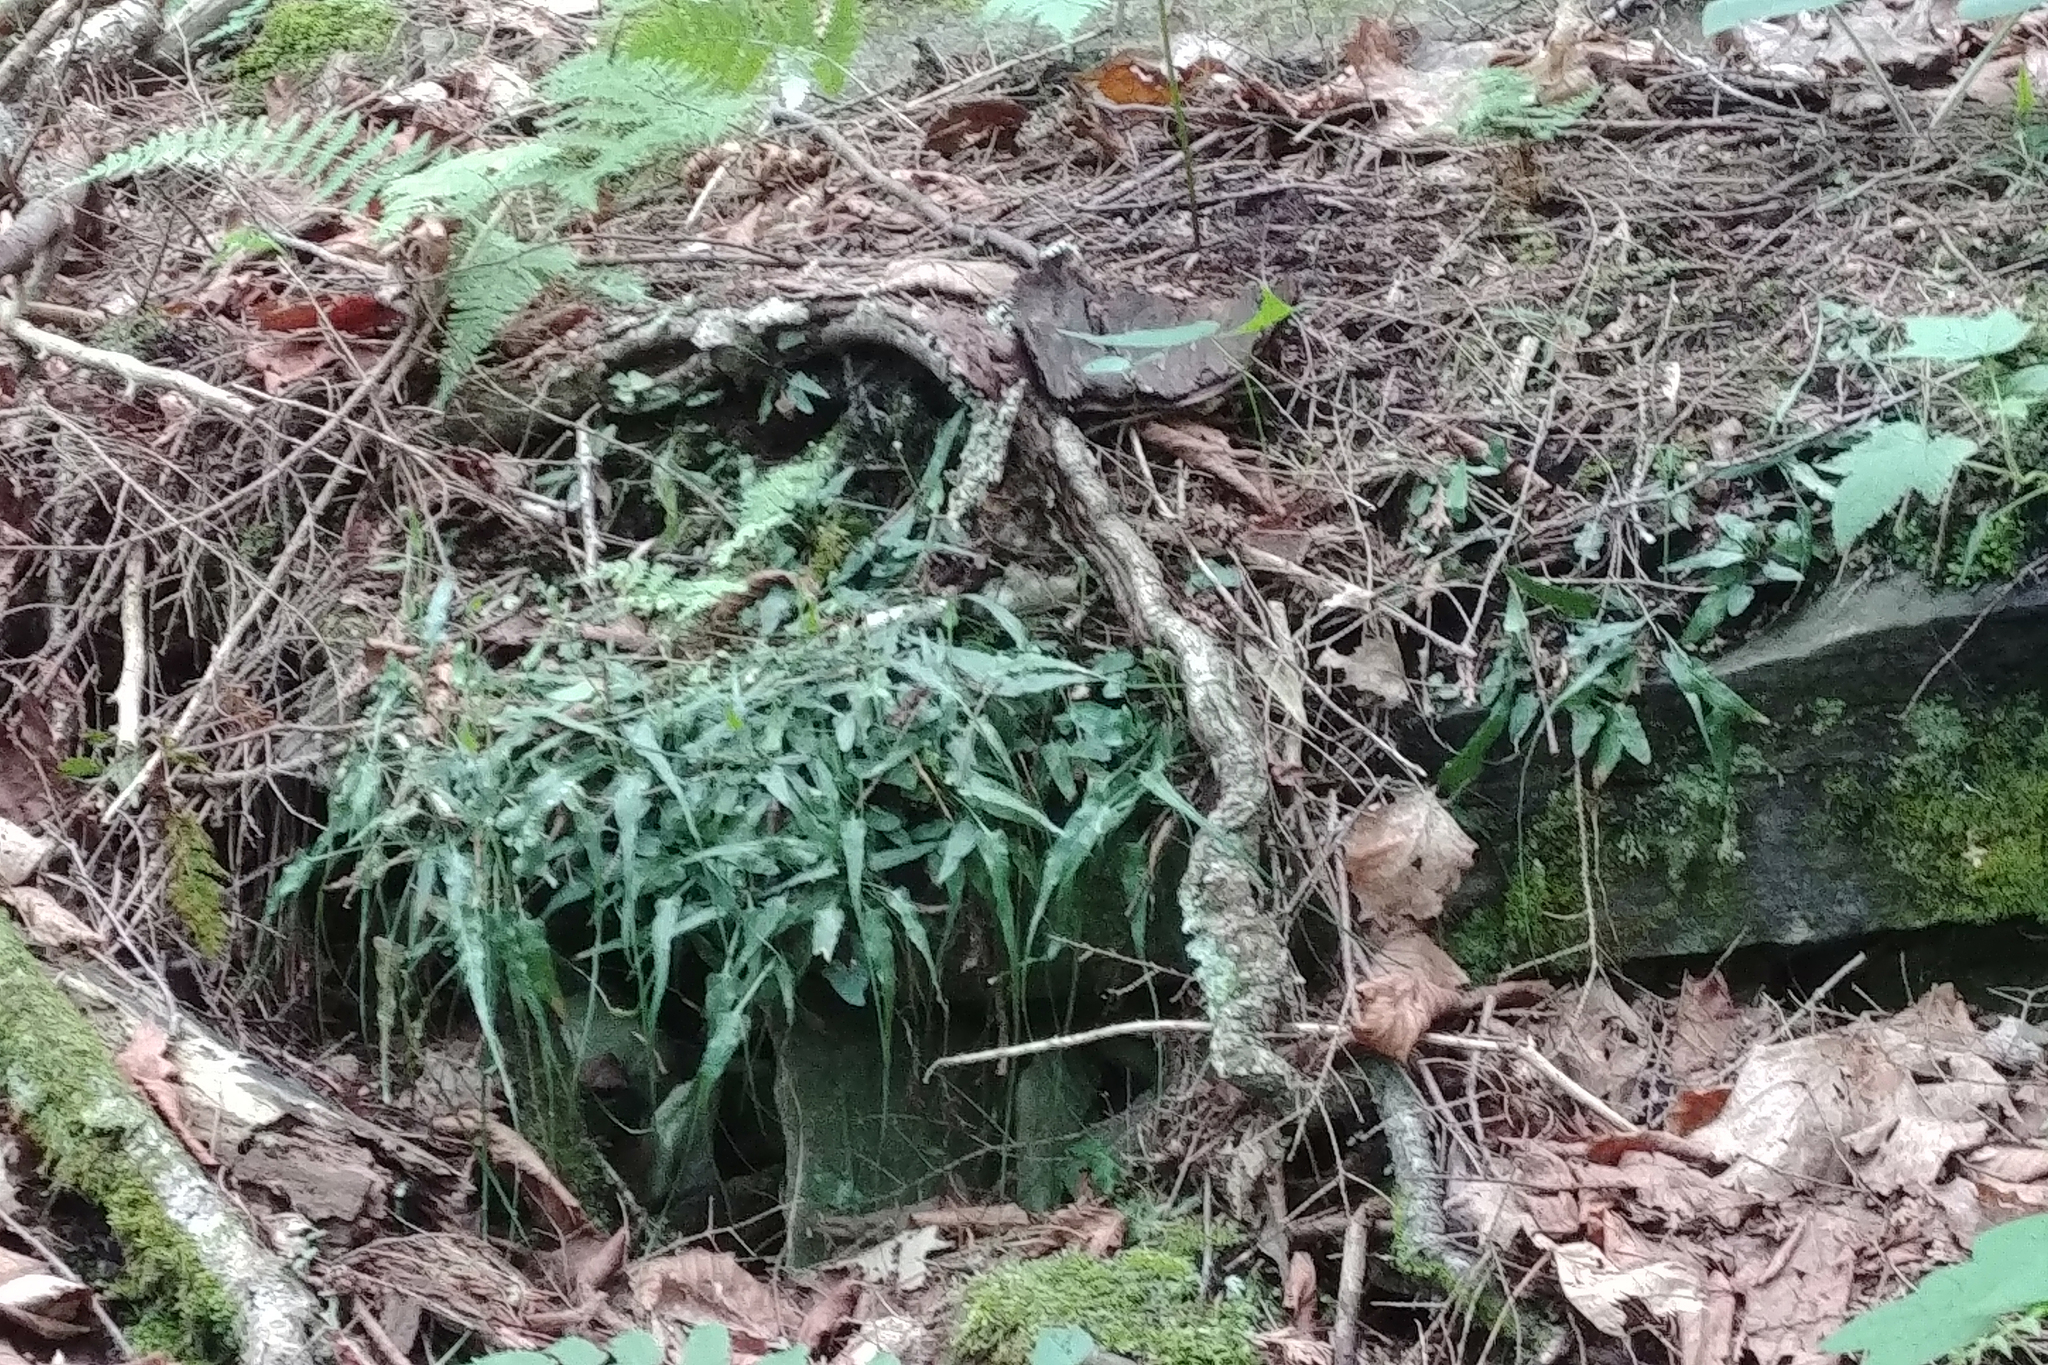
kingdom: Plantae
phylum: Tracheophyta
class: Polypodiopsida
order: Polypodiales
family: Aspleniaceae
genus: Asplenium
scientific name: Asplenium rhizophyllum
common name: Walking fern
